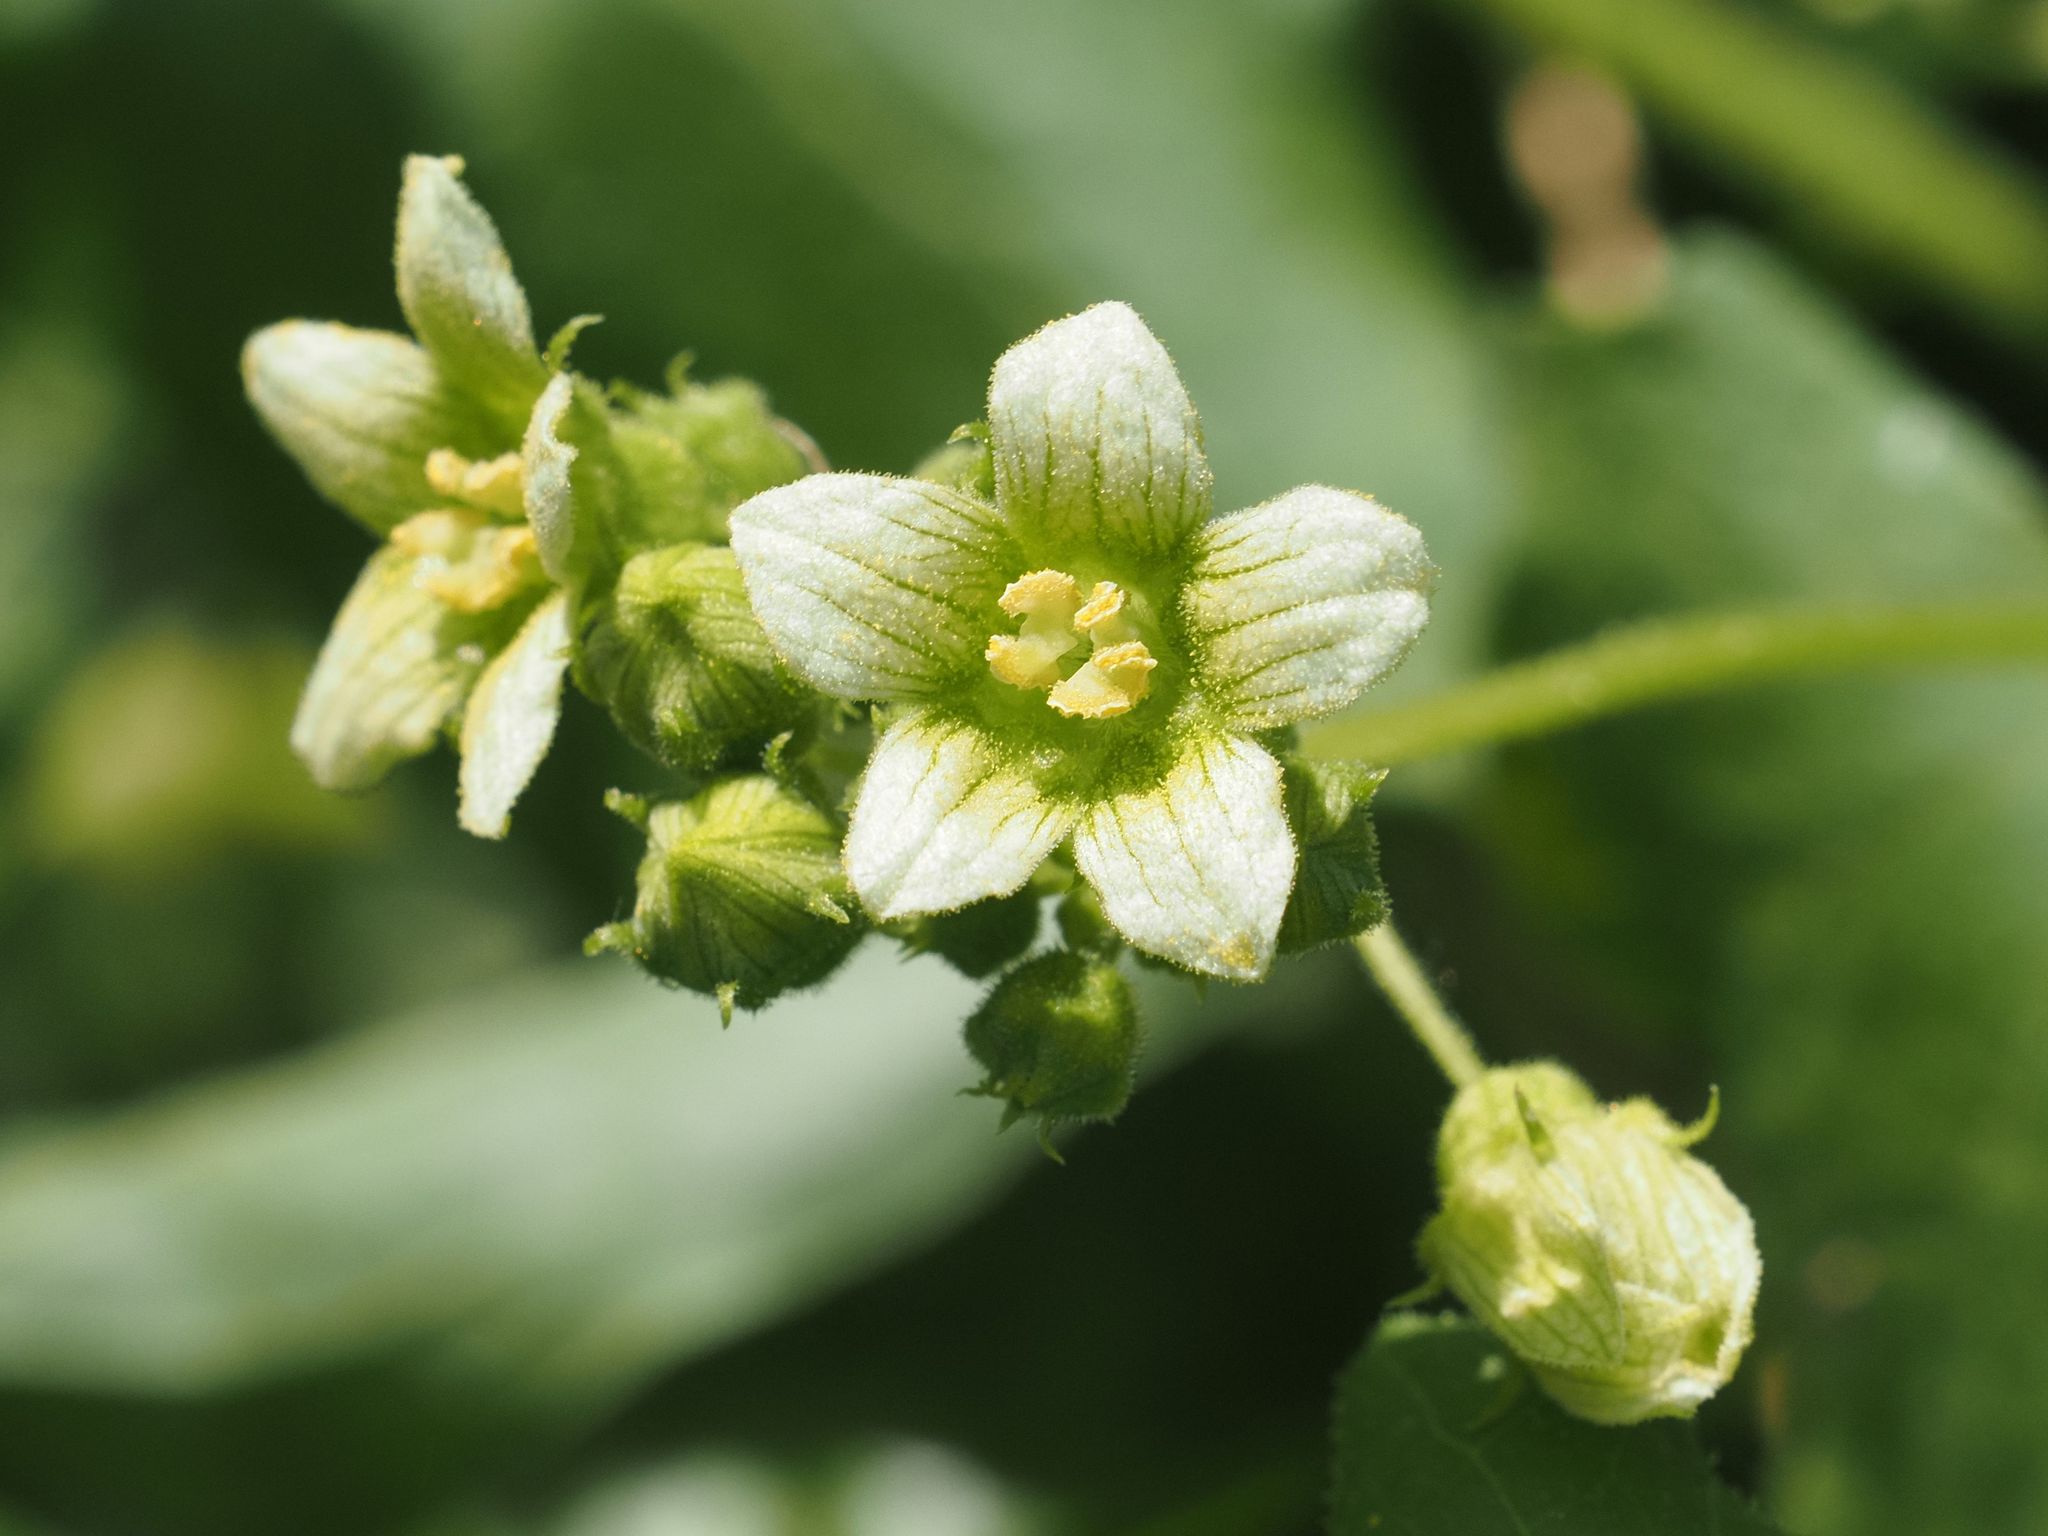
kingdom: Plantae
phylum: Tracheophyta
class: Magnoliopsida
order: Cucurbitales
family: Cucurbitaceae
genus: Bryonia
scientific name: Bryonia dioica
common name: White bryony
